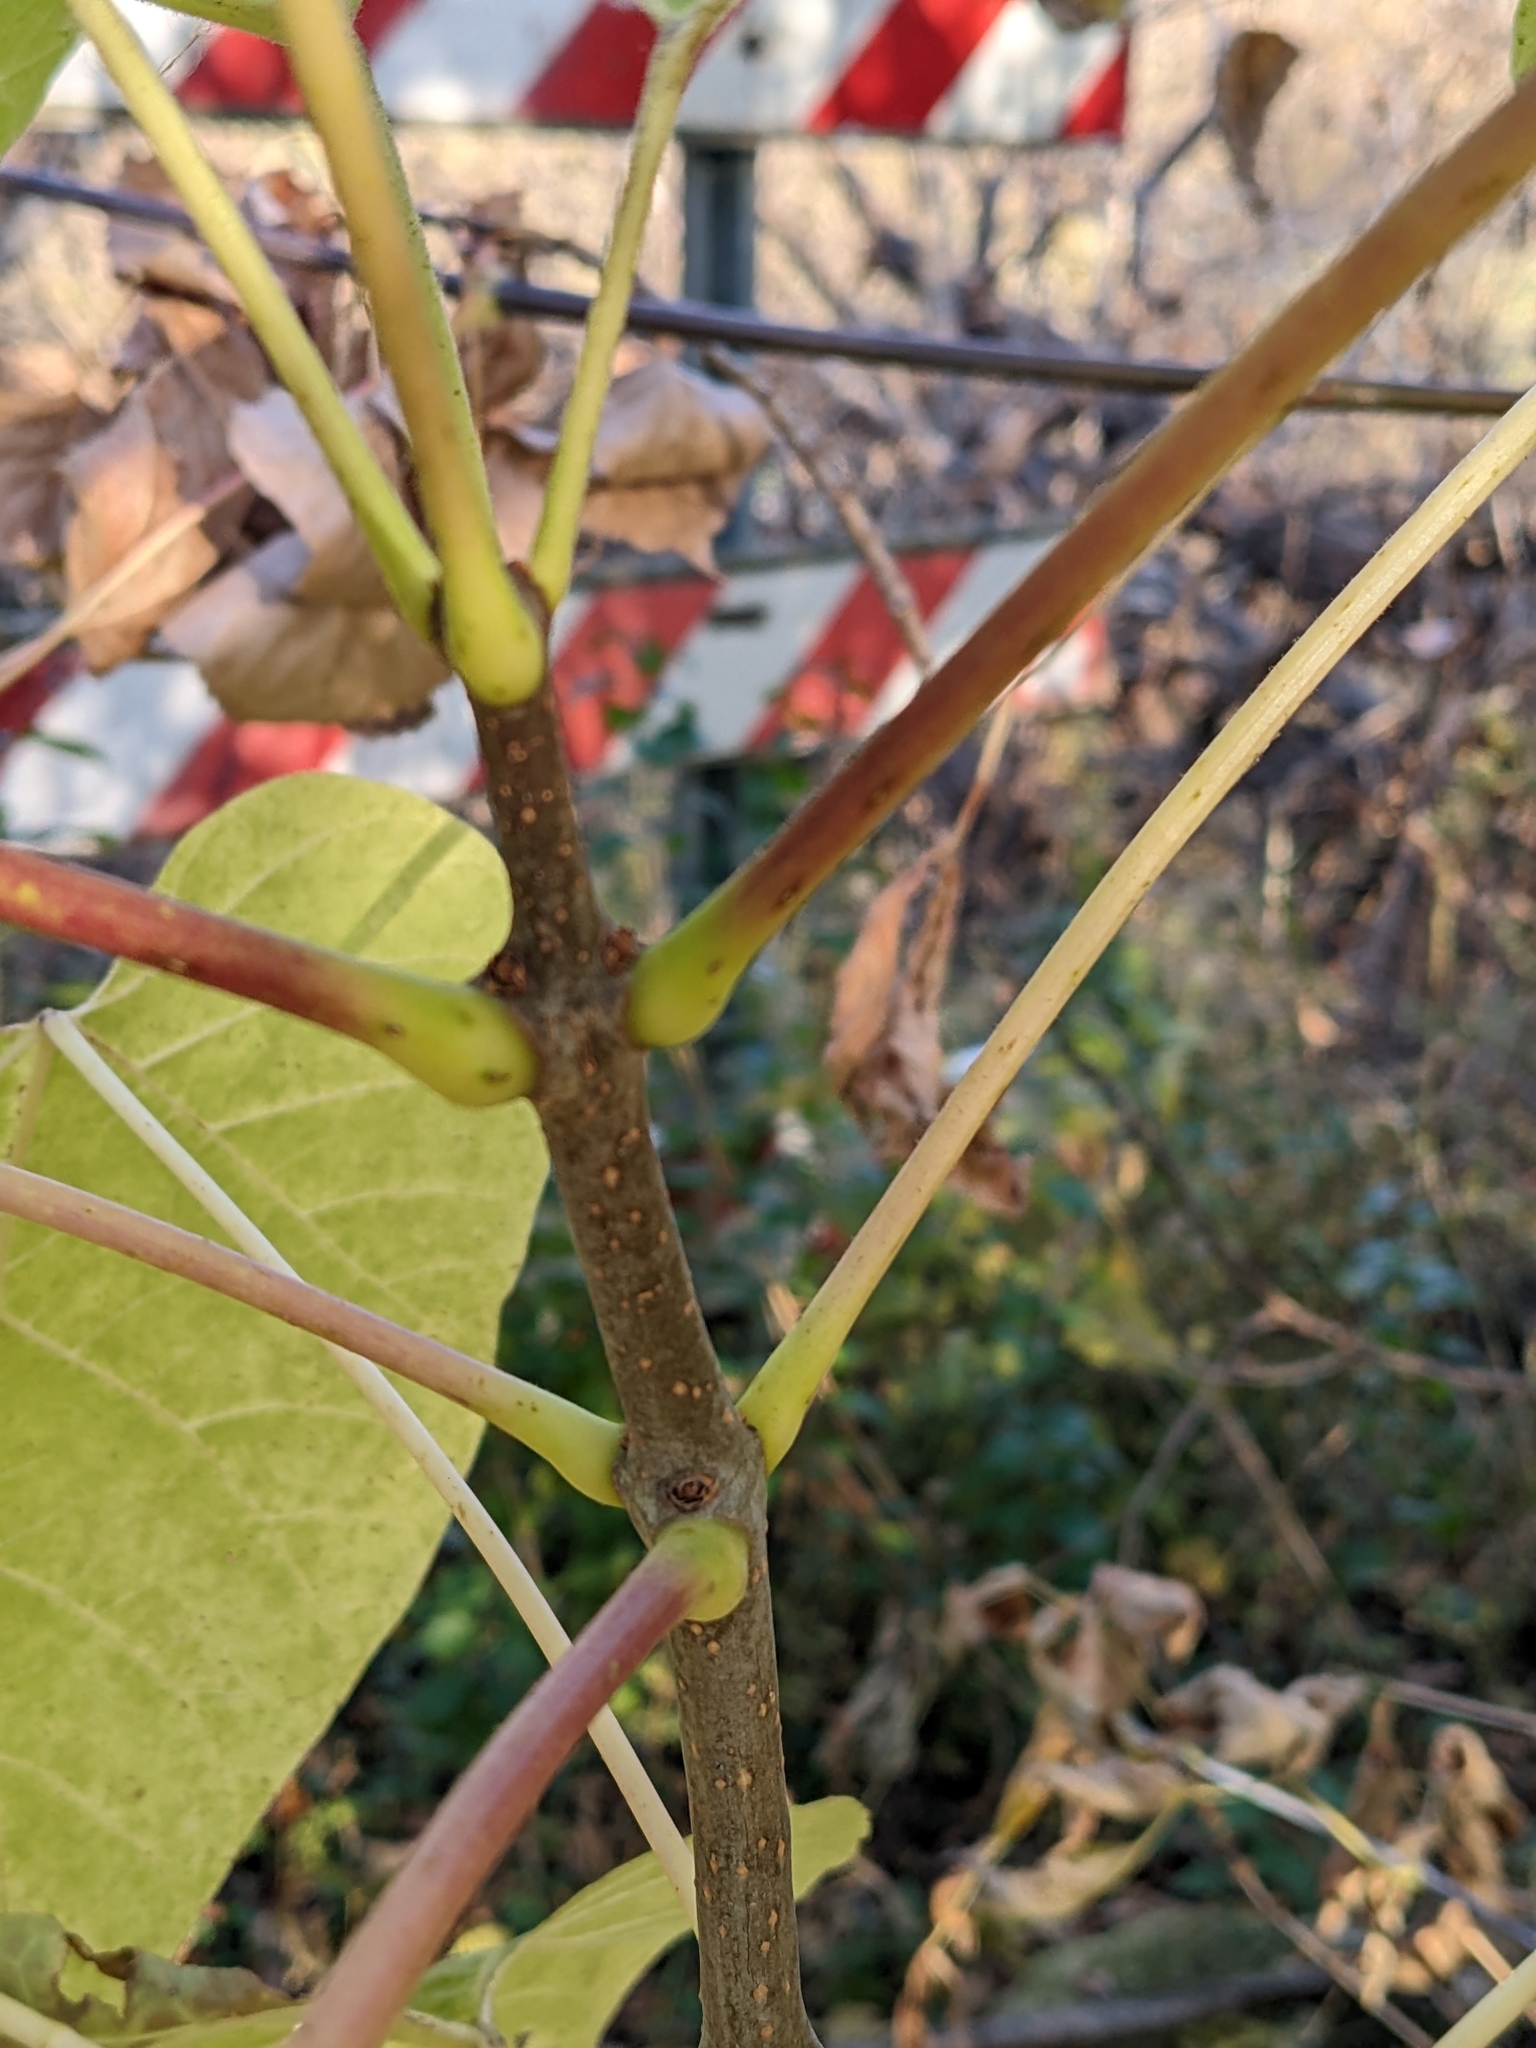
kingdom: Plantae
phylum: Tracheophyta
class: Magnoliopsida
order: Lamiales
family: Bignoniaceae
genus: Catalpa
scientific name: Catalpa speciosa
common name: Northern catalpa
